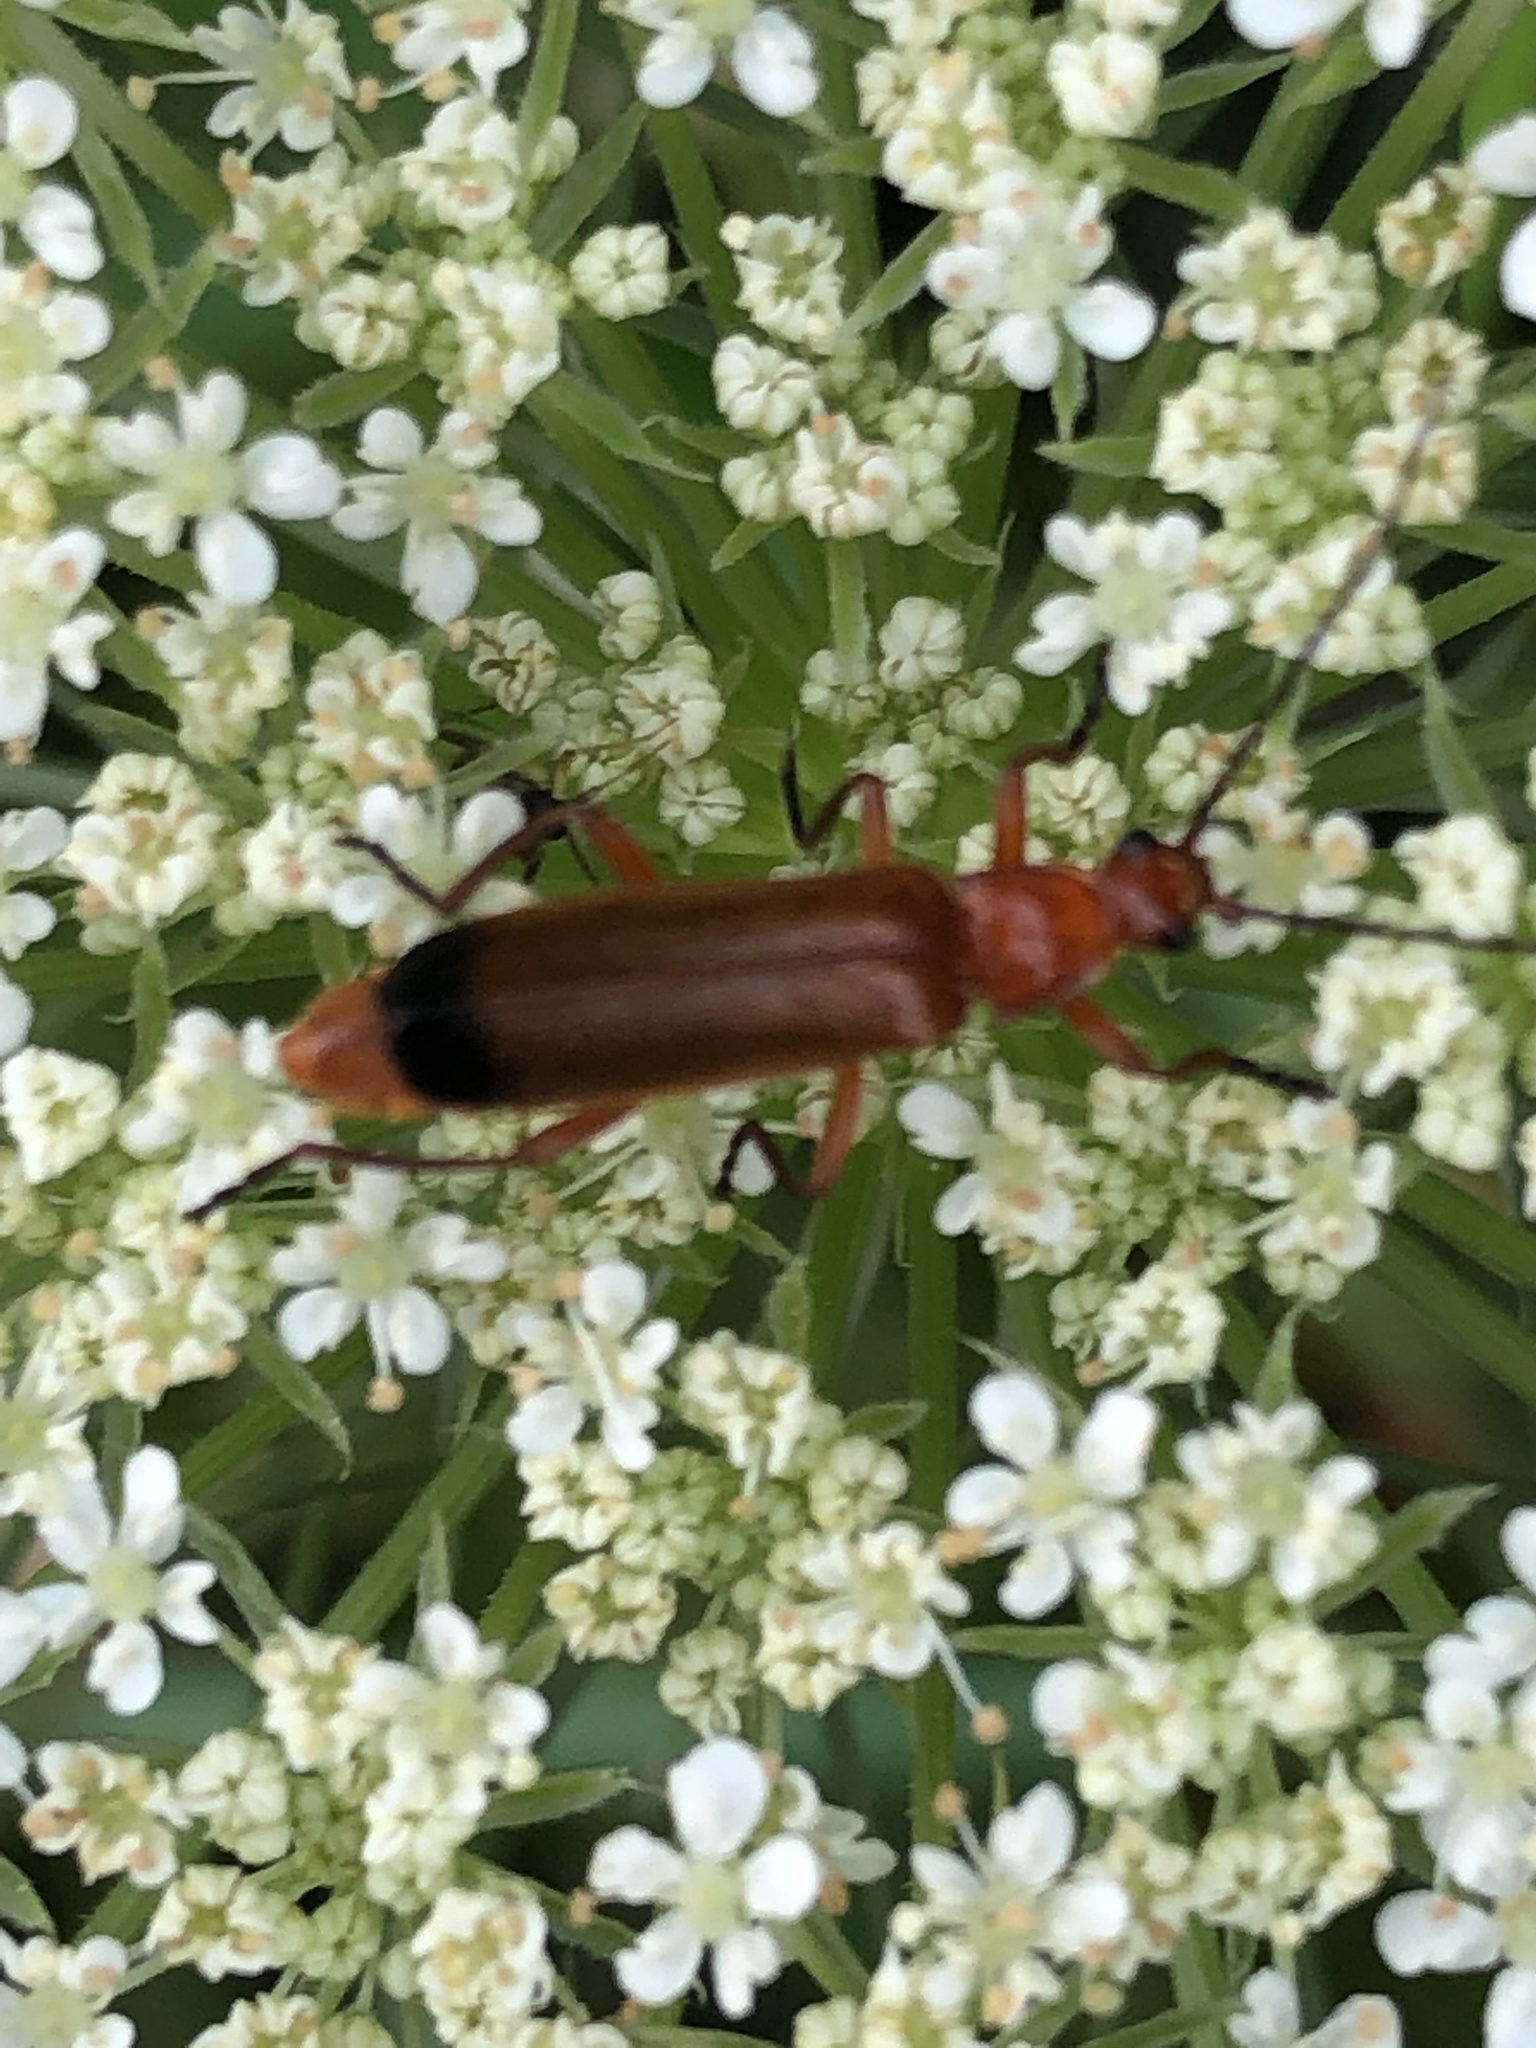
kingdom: Animalia
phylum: Arthropoda
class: Insecta
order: Coleoptera
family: Cantharidae
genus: Rhagonycha
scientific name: Rhagonycha fulva
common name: Common red soldier beetle
